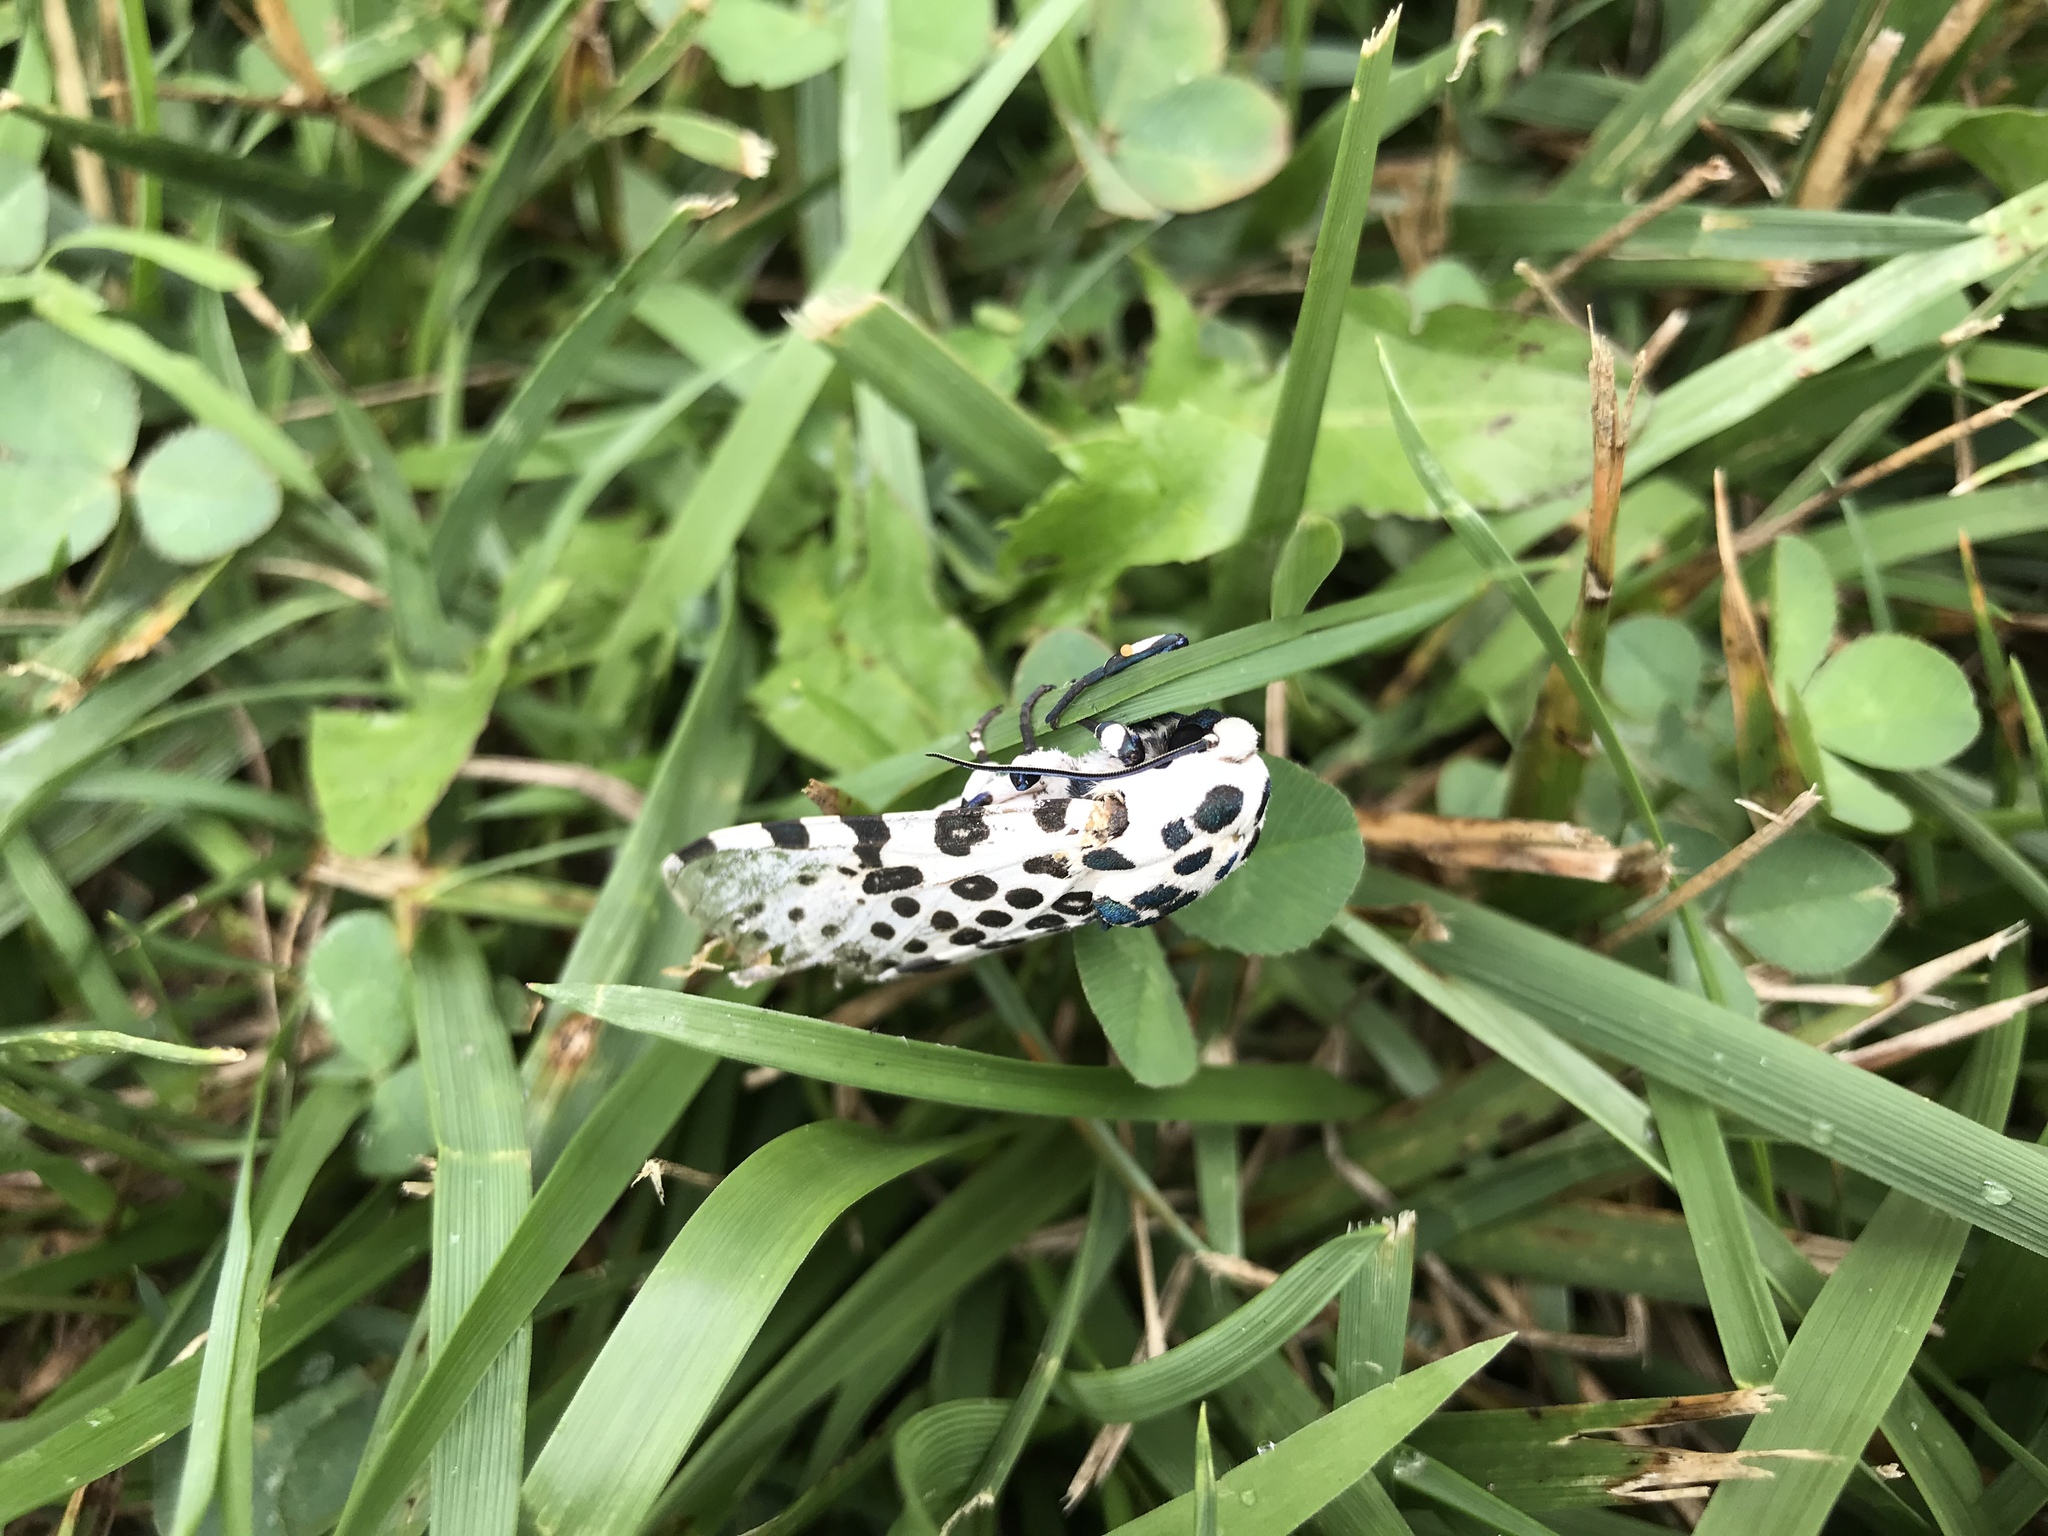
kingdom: Animalia
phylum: Arthropoda
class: Insecta
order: Lepidoptera
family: Cossidae
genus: Zeuzera
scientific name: Zeuzera pyrina
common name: Leopard moth
